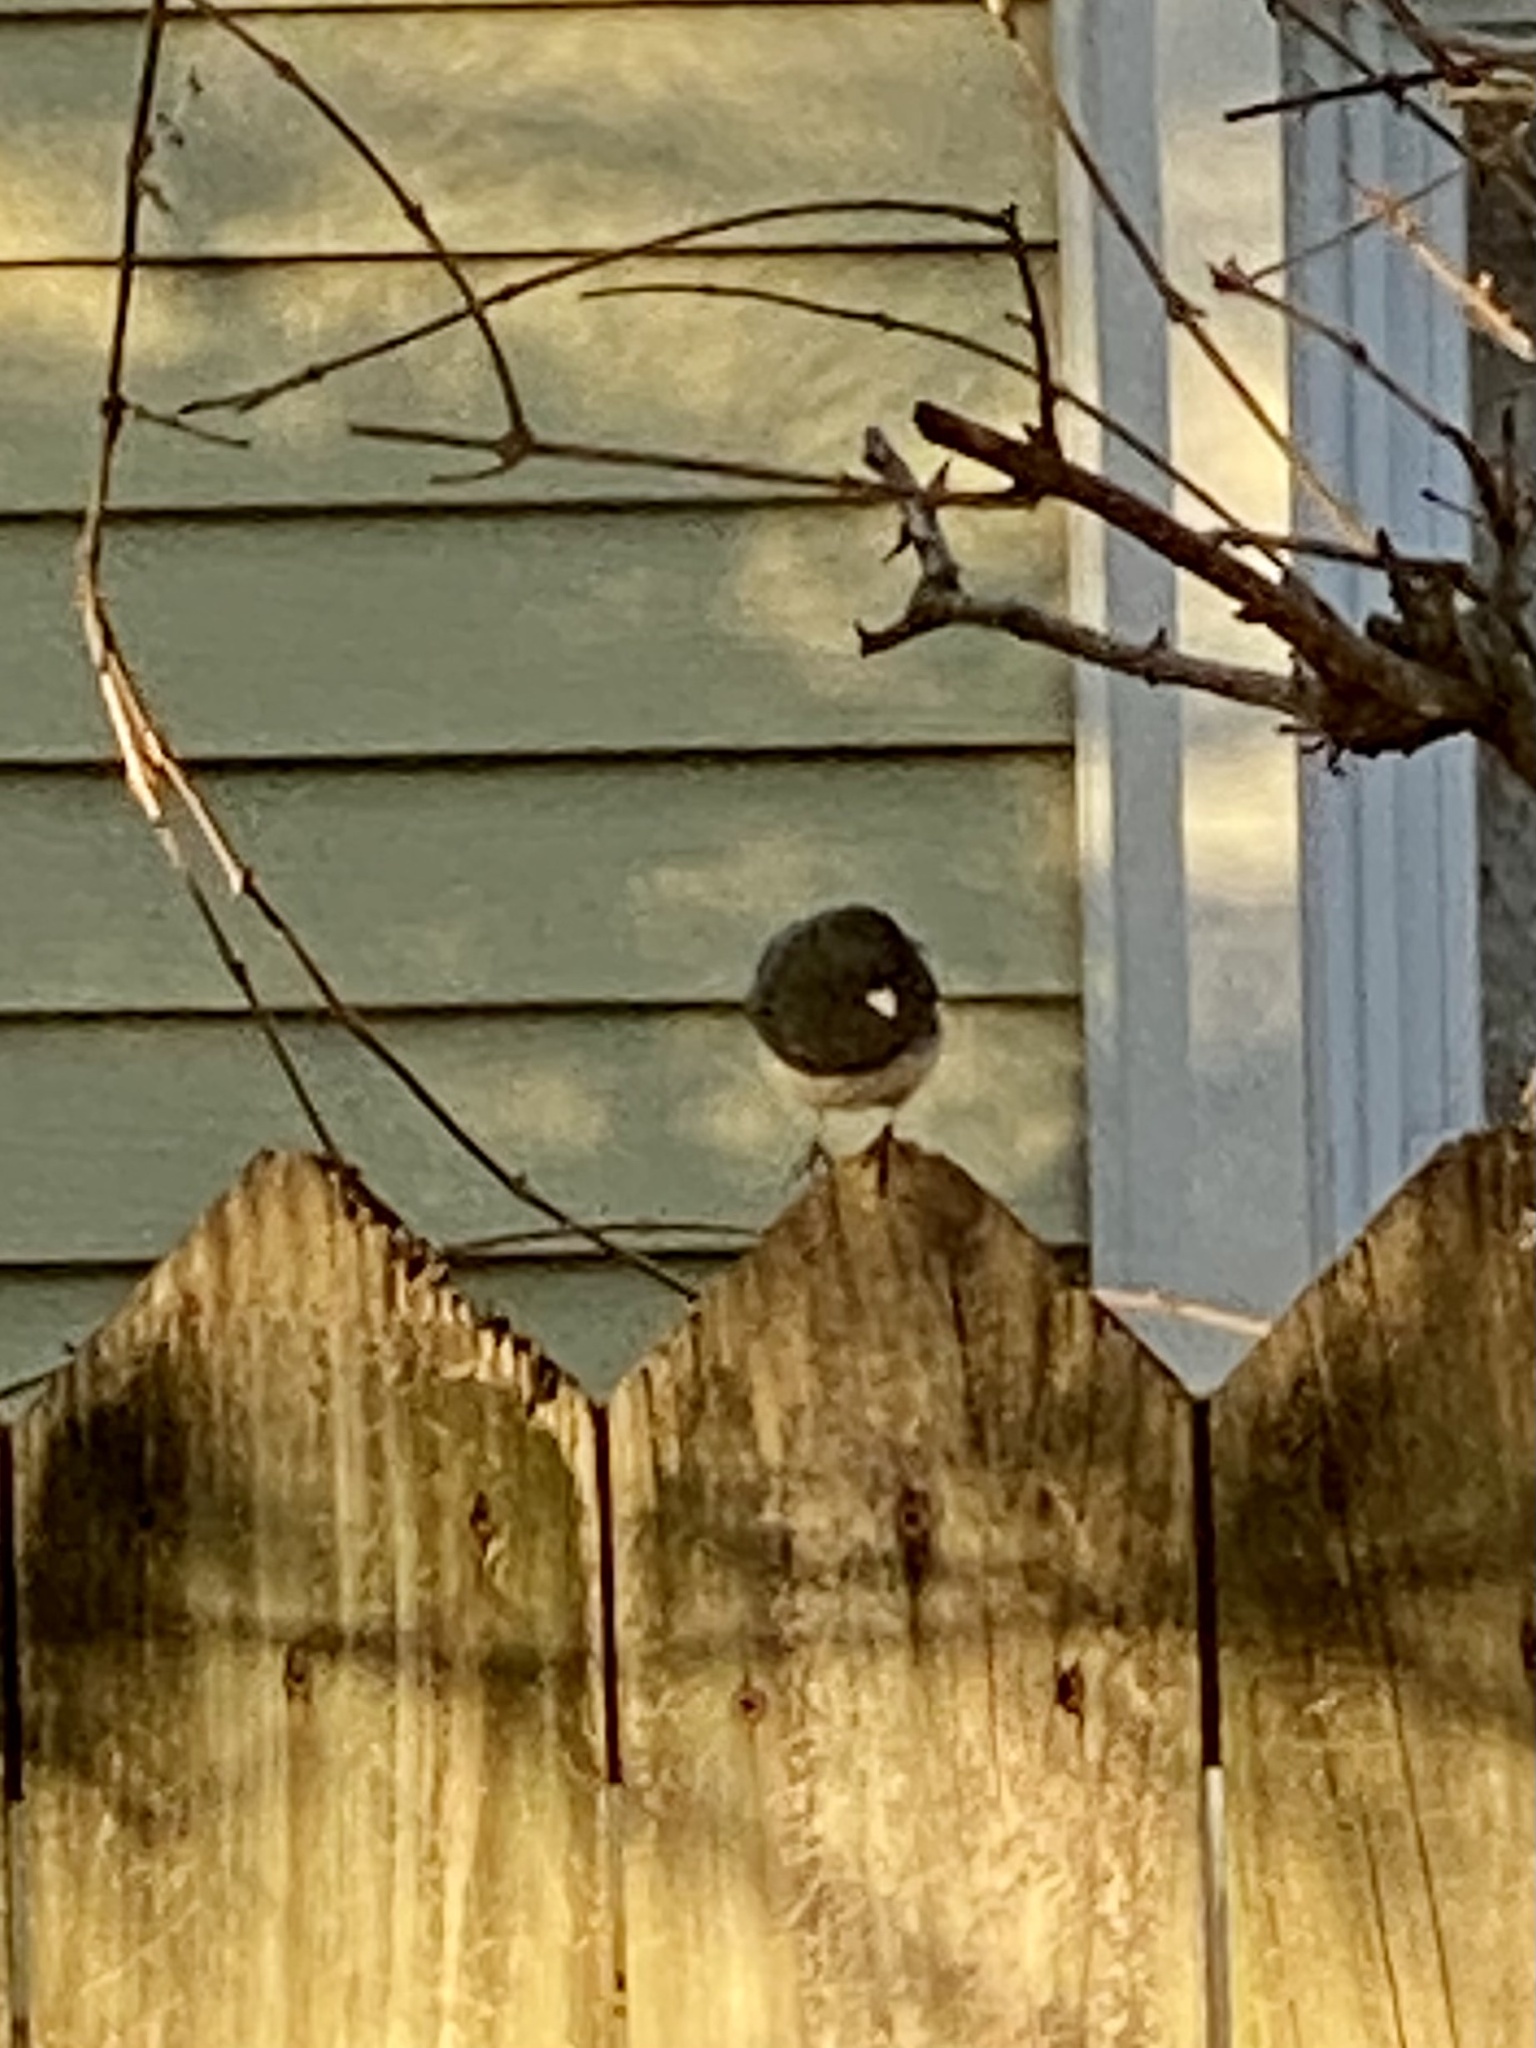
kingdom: Animalia
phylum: Chordata
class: Aves
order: Passeriformes
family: Passerellidae
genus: Junco
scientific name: Junco hyemalis
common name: Dark-eyed junco
